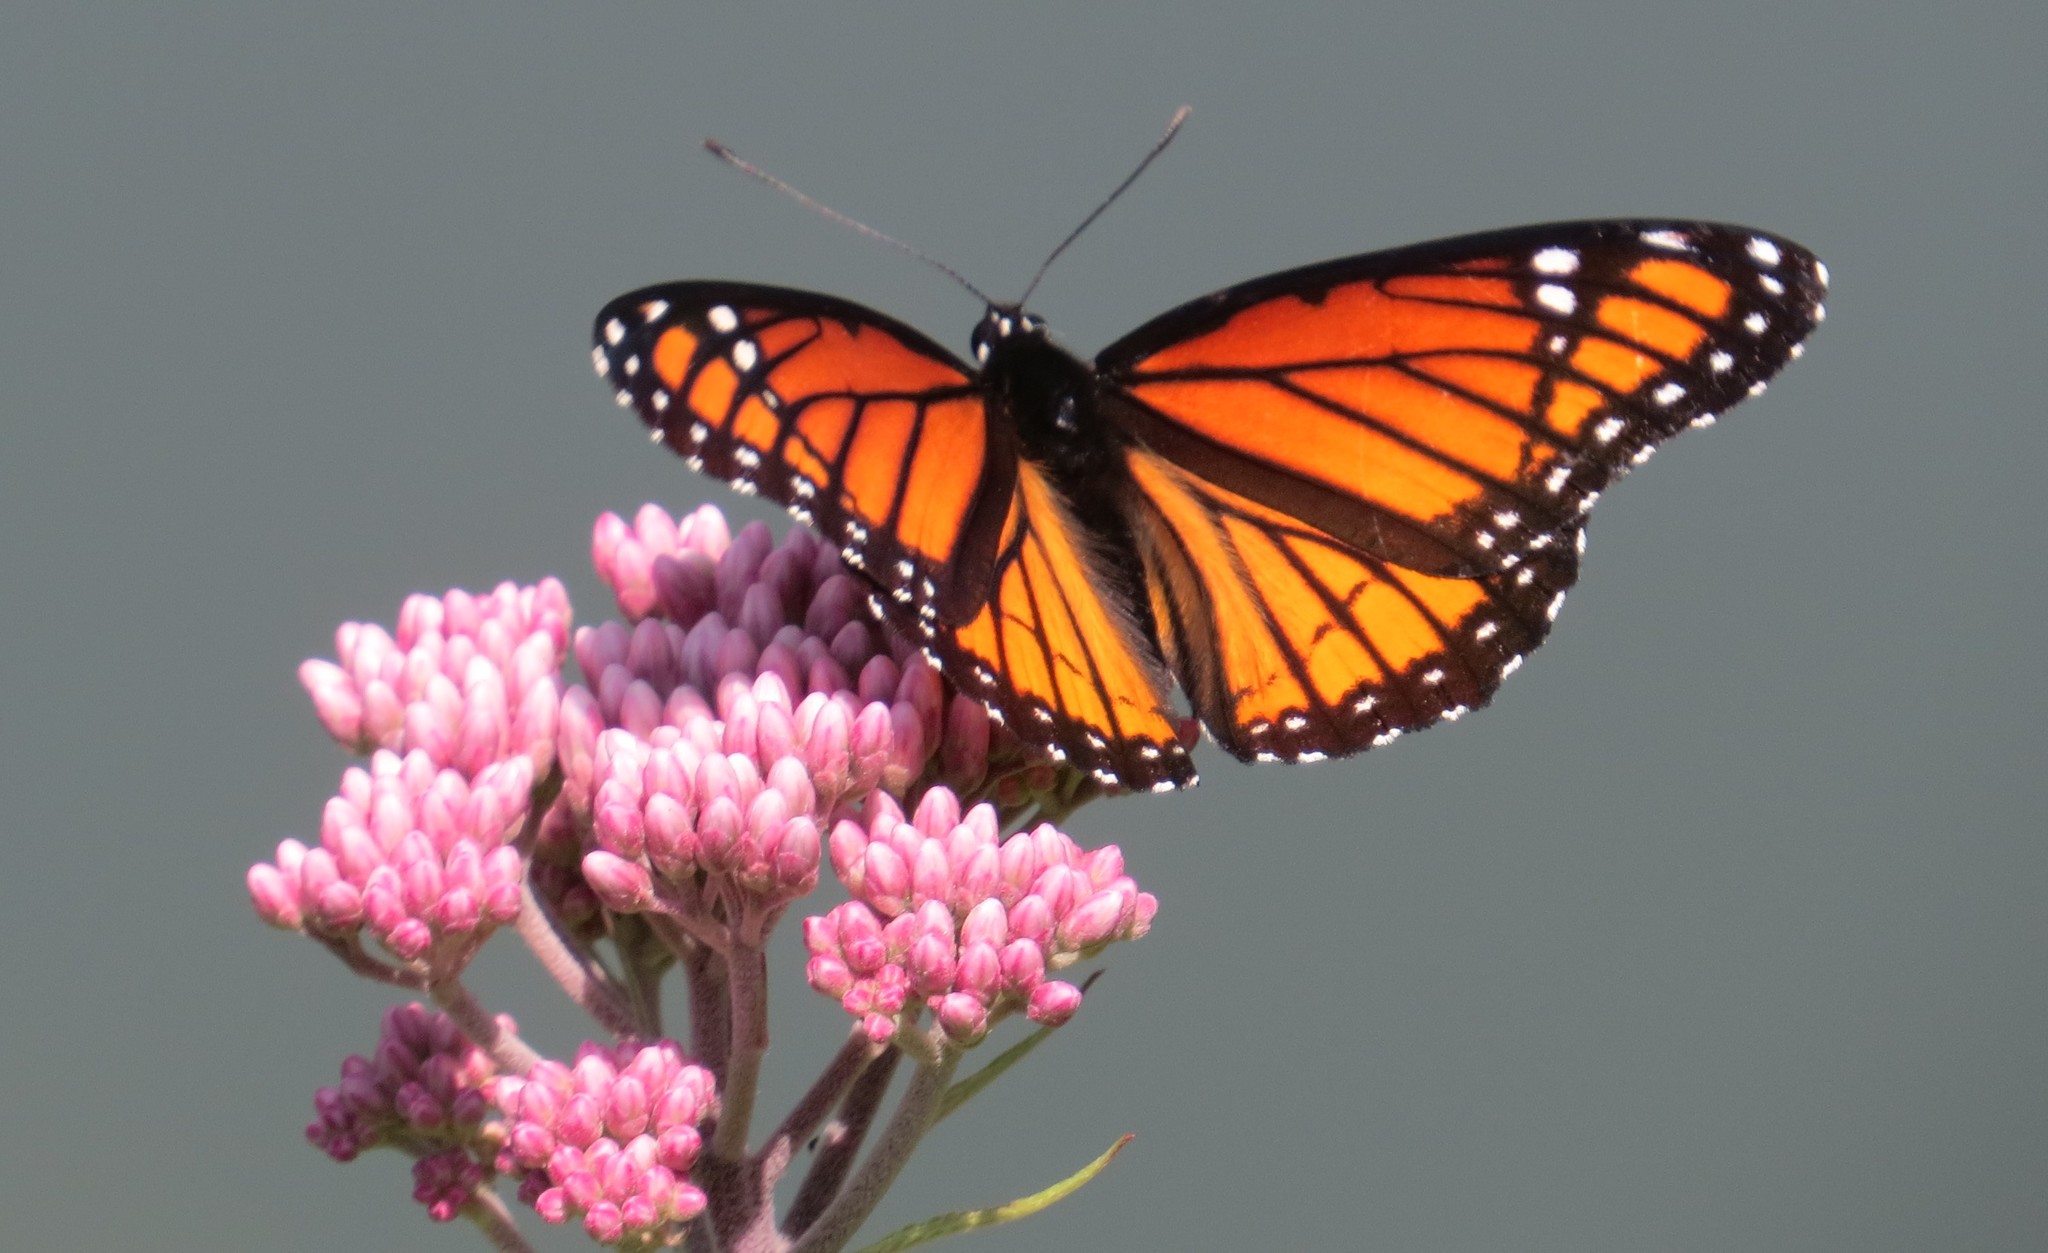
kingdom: Animalia
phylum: Arthropoda
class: Insecta
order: Lepidoptera
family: Nymphalidae
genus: Limenitis
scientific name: Limenitis archippus
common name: Viceroy
